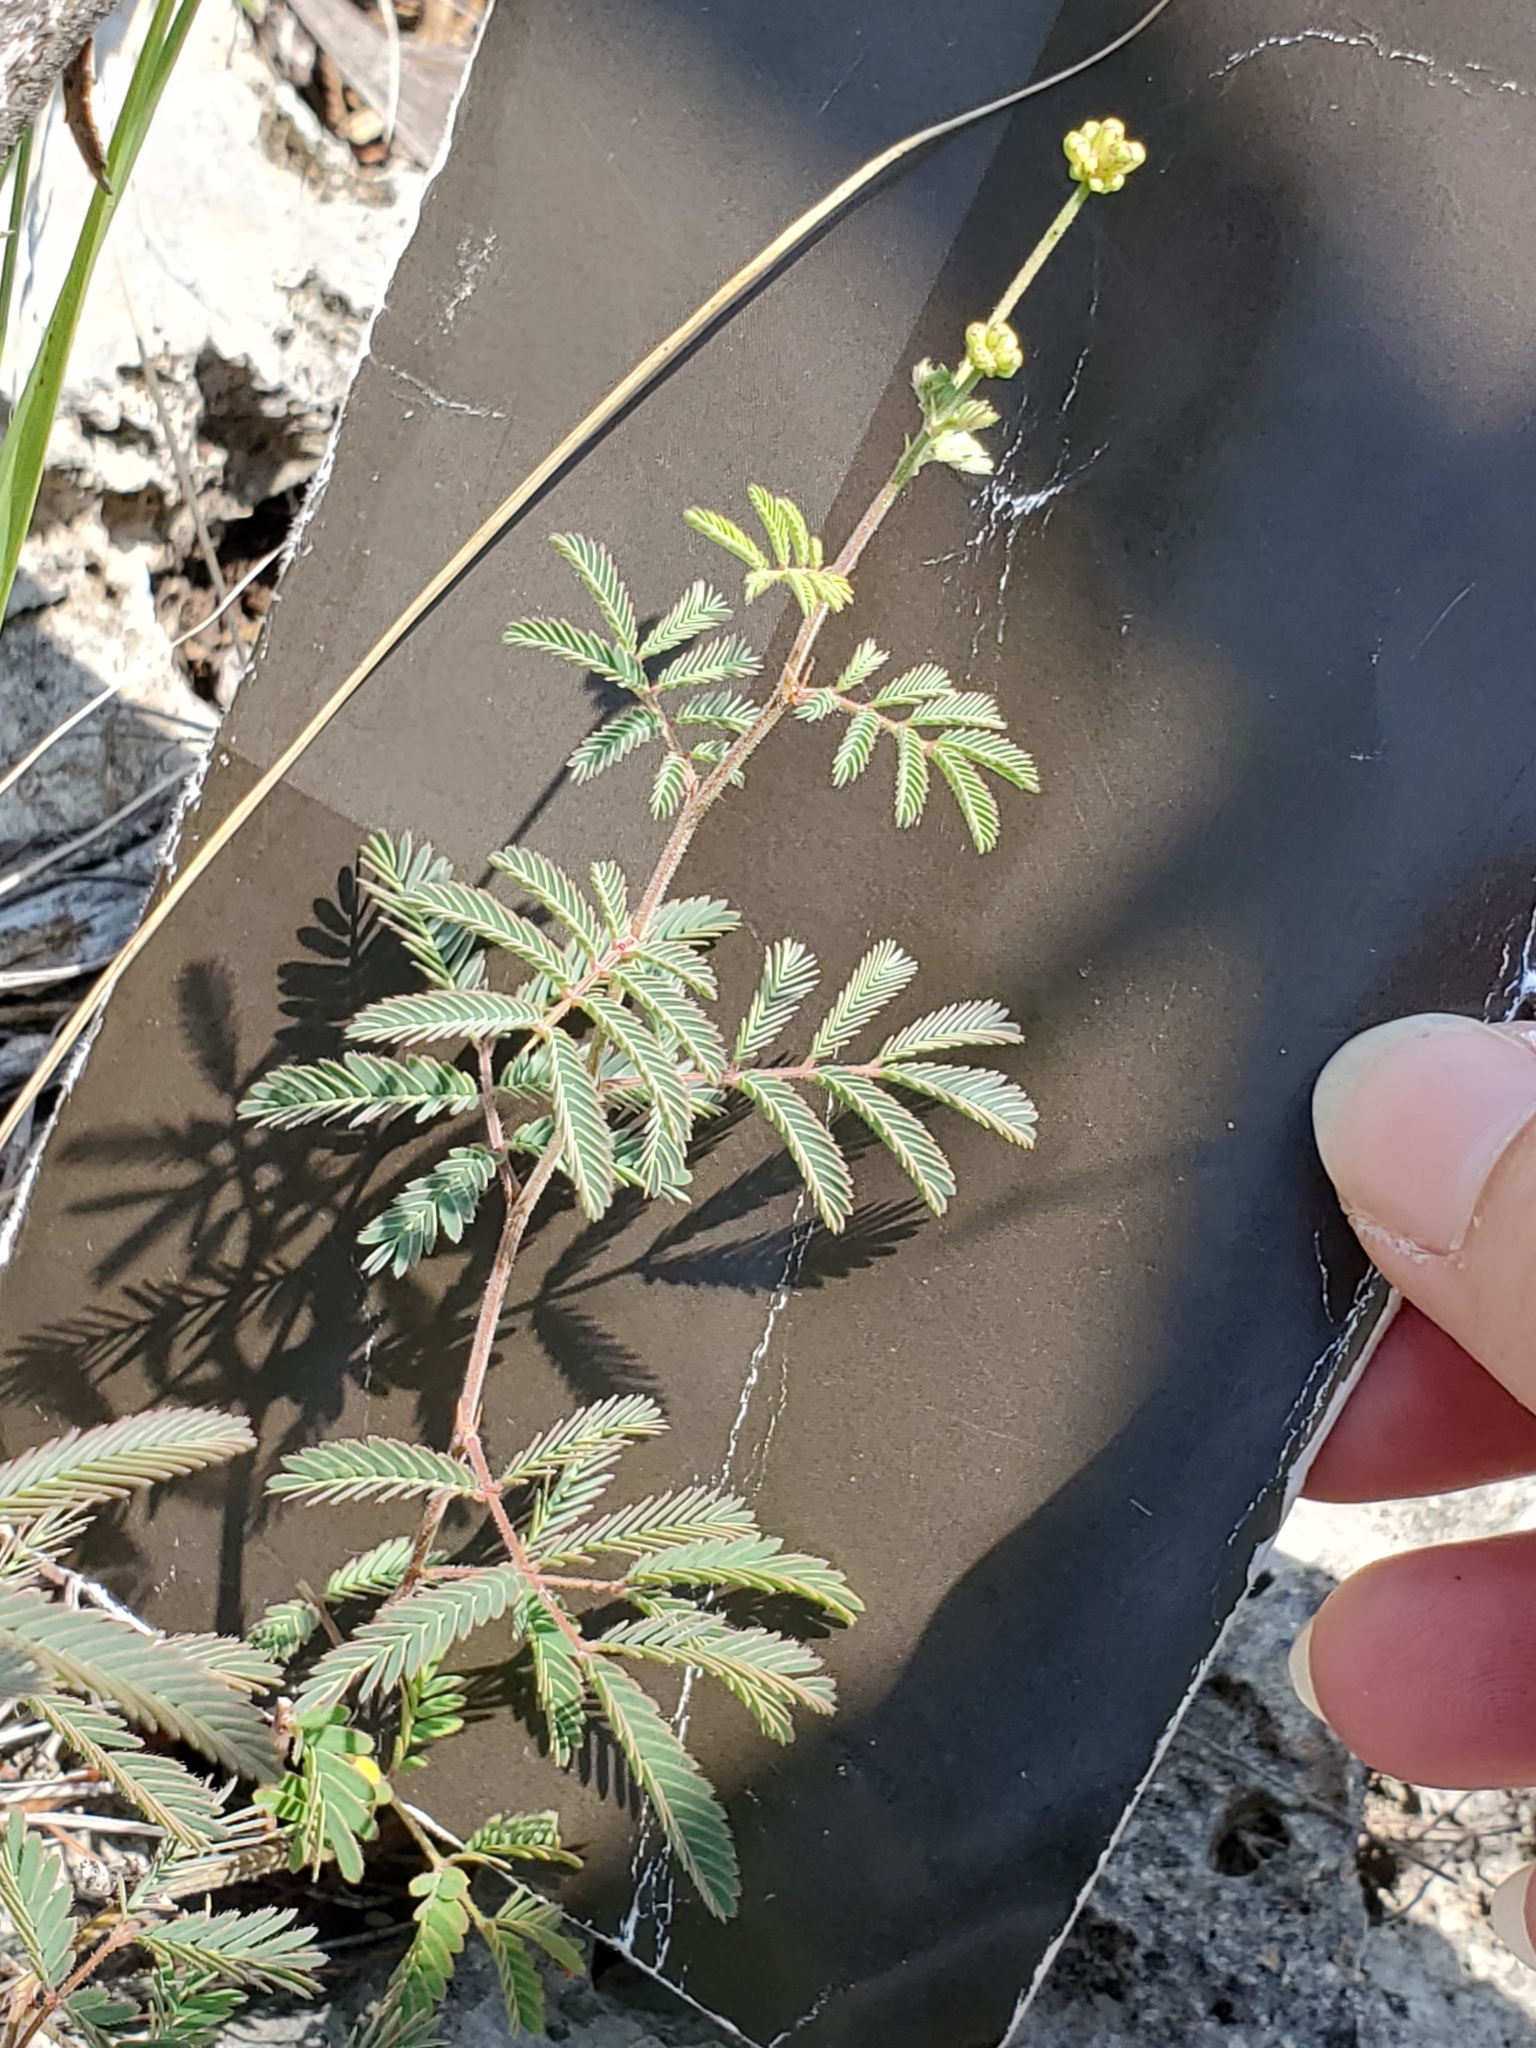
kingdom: Plantae
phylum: Tracheophyta
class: Magnoliopsida
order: Fabales
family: Fabaceae
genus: Desmanthus
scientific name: Desmanthus velutinus
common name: Velvet bundle-flower
